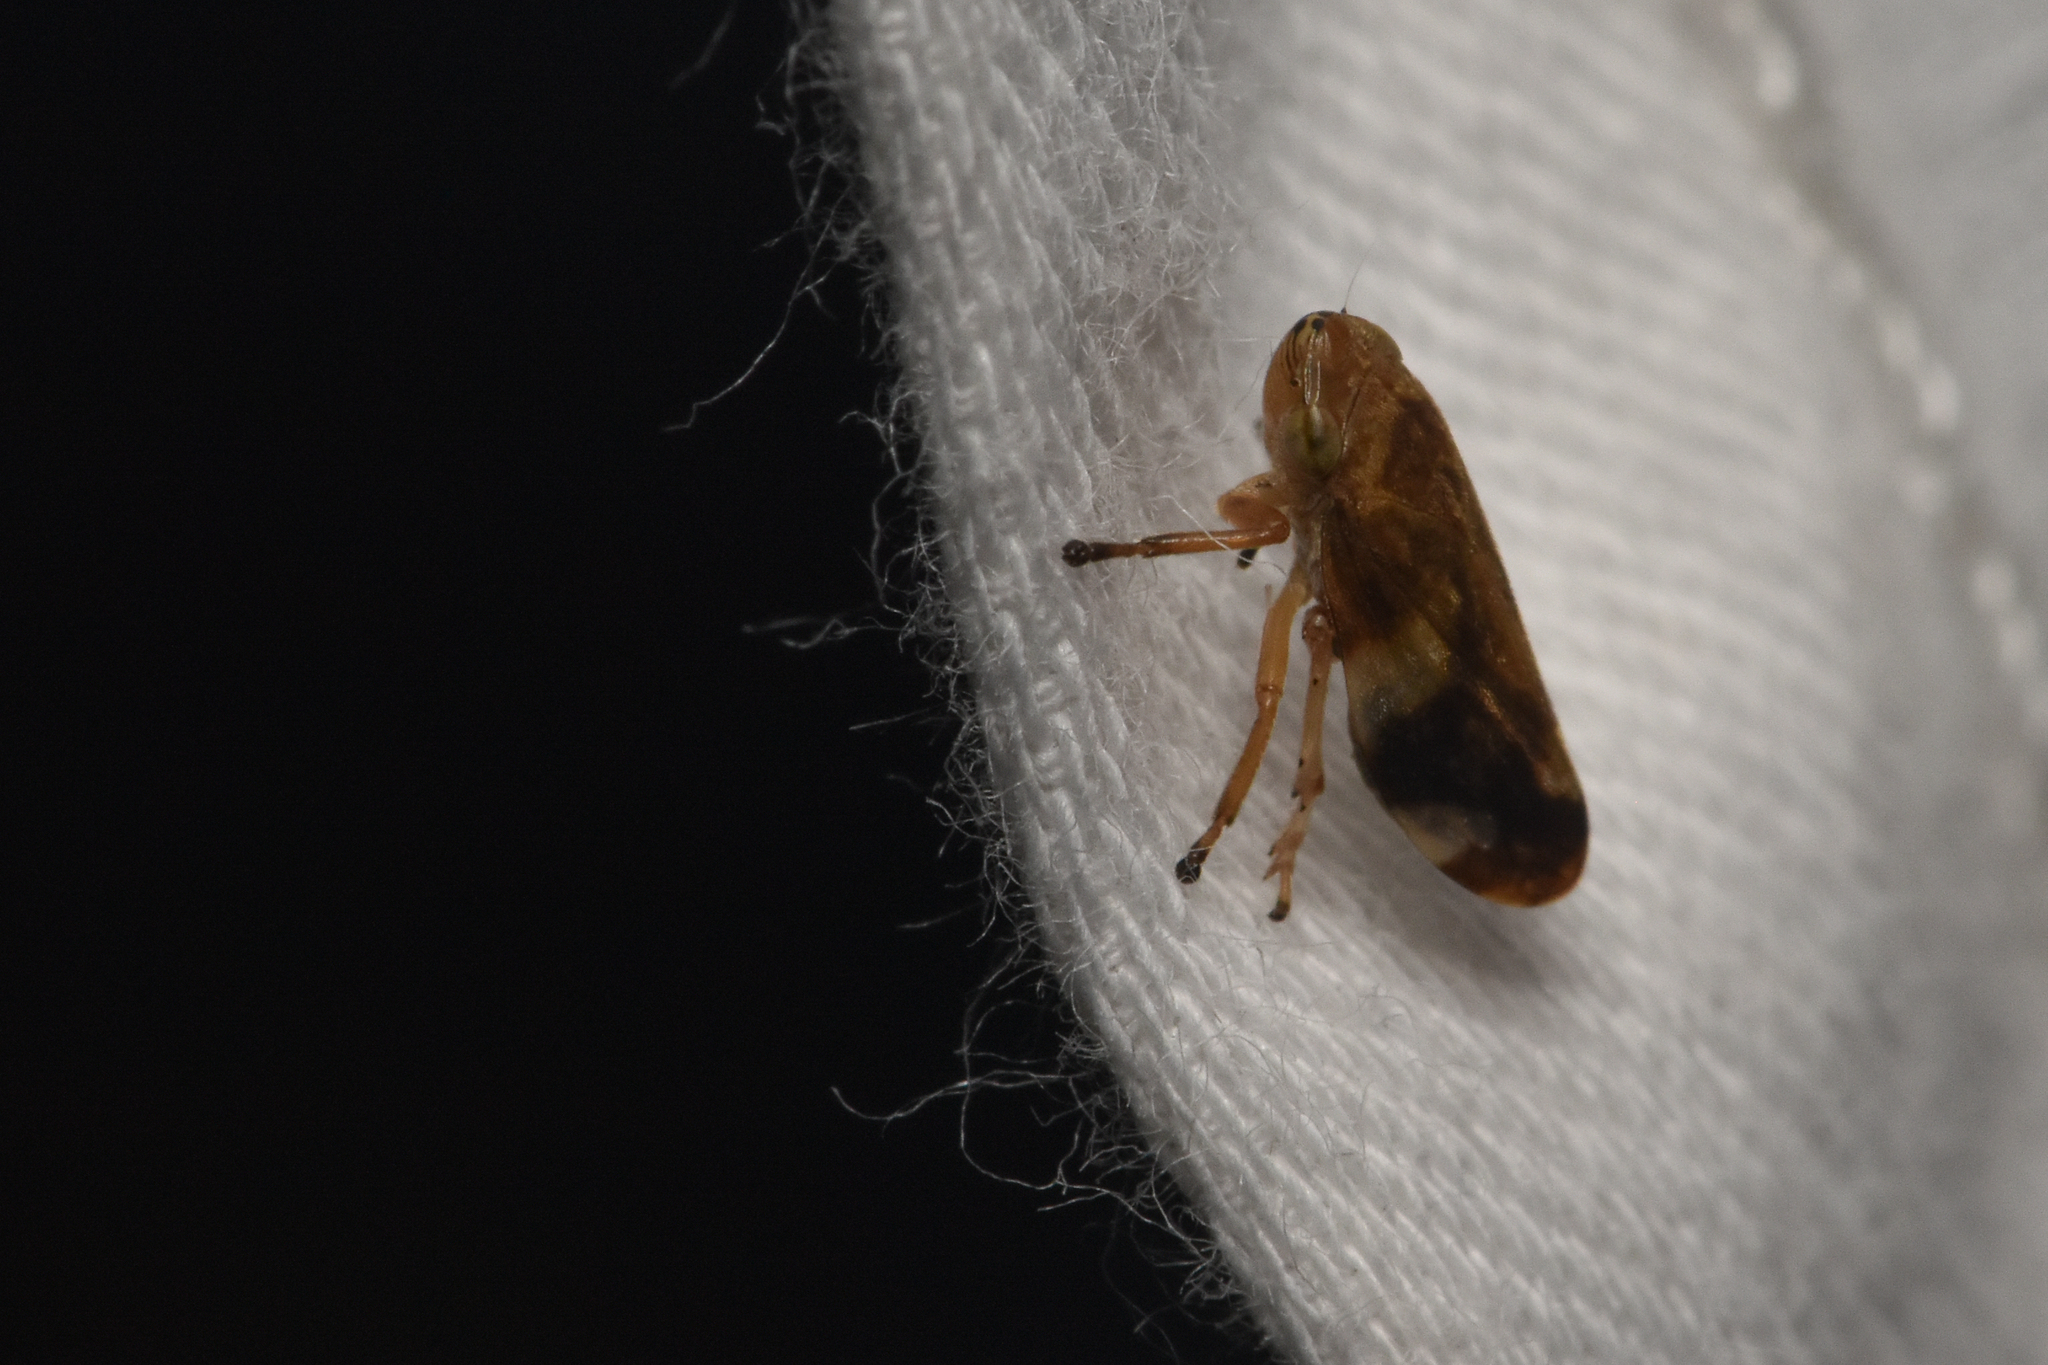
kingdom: Animalia
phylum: Arthropoda
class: Insecta
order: Hemiptera
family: Aphrophoridae
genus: Philaenus
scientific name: Philaenus spumarius
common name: Meadow spittlebug
